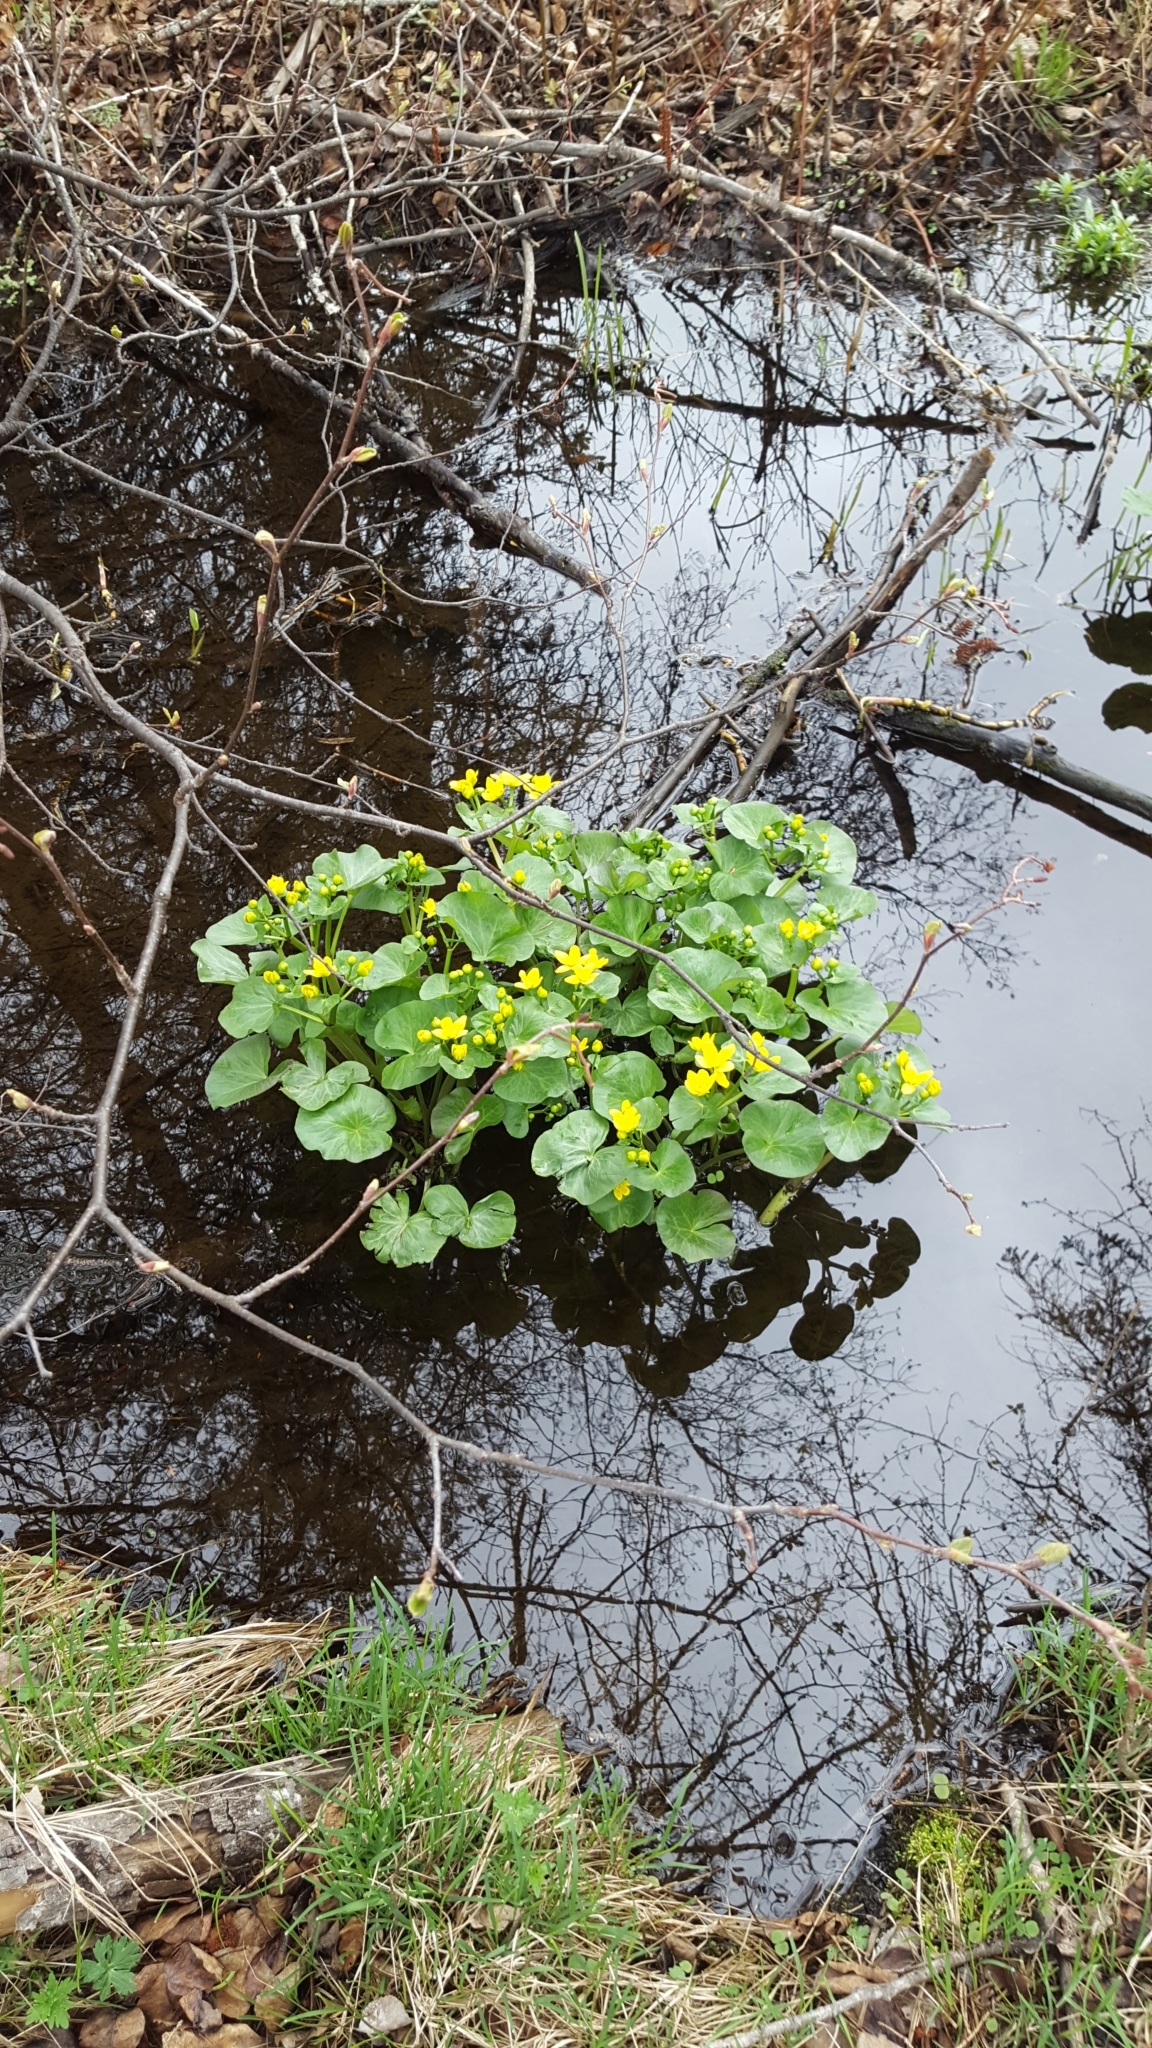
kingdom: Plantae
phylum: Tracheophyta
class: Magnoliopsida
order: Ranunculales
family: Ranunculaceae
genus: Caltha
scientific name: Caltha palustris
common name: Marsh marigold
